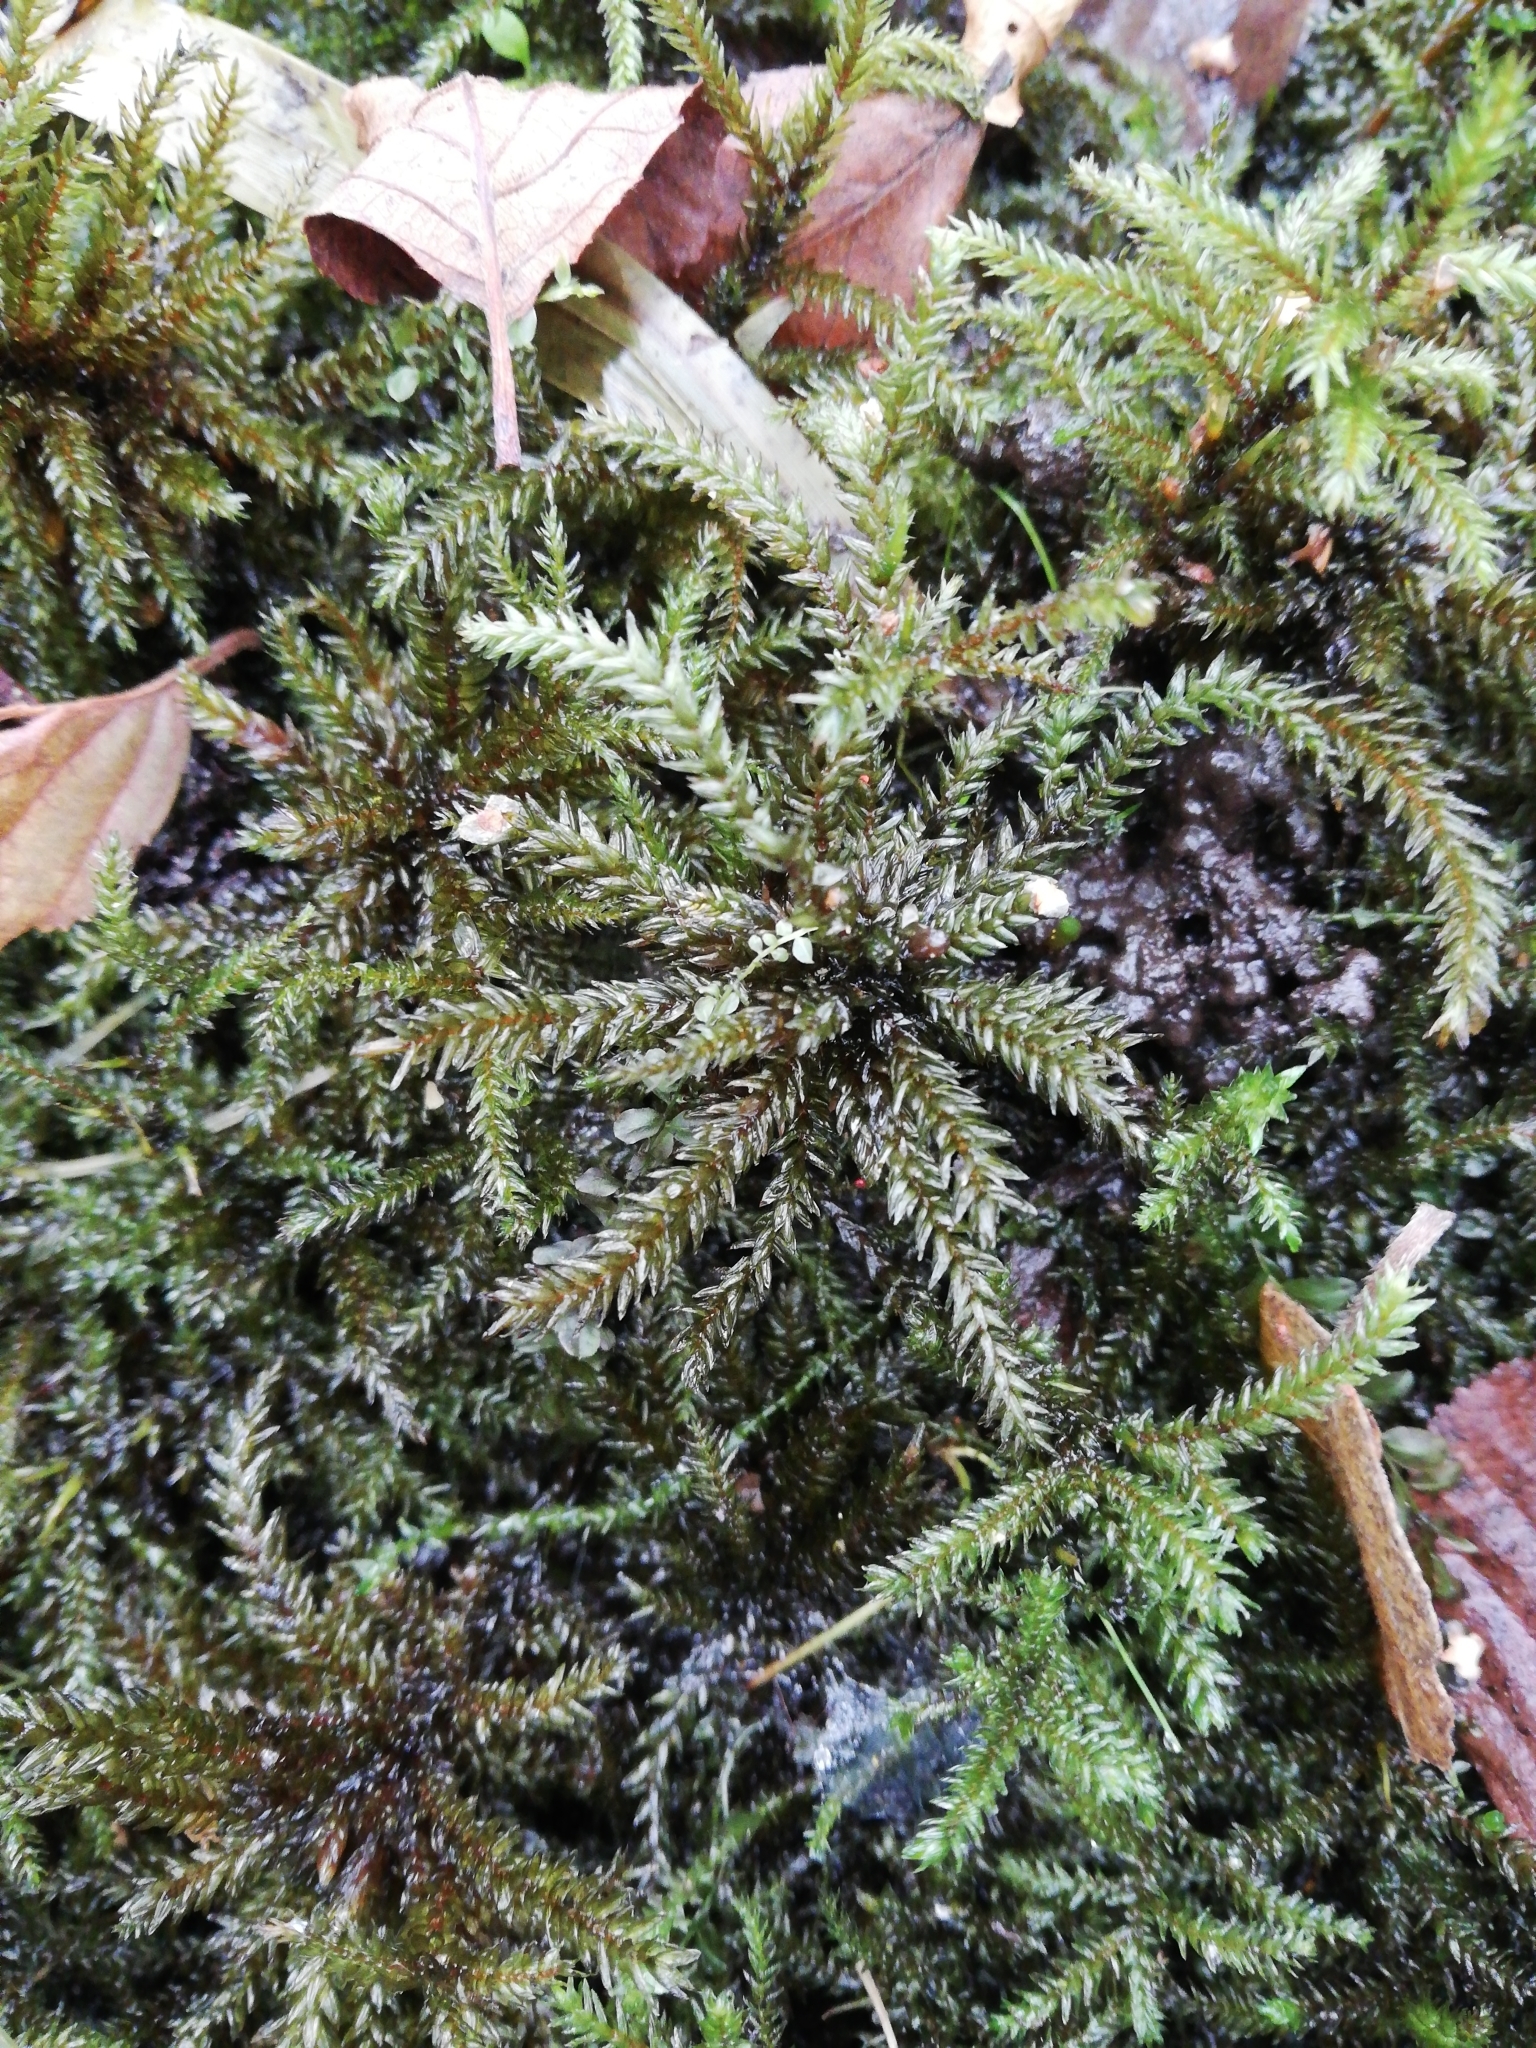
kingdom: Plantae
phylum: Bryophyta
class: Bryopsida
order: Hypnales
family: Climaciaceae
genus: Climacium
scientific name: Climacium dendroides
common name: Northern tree moss
